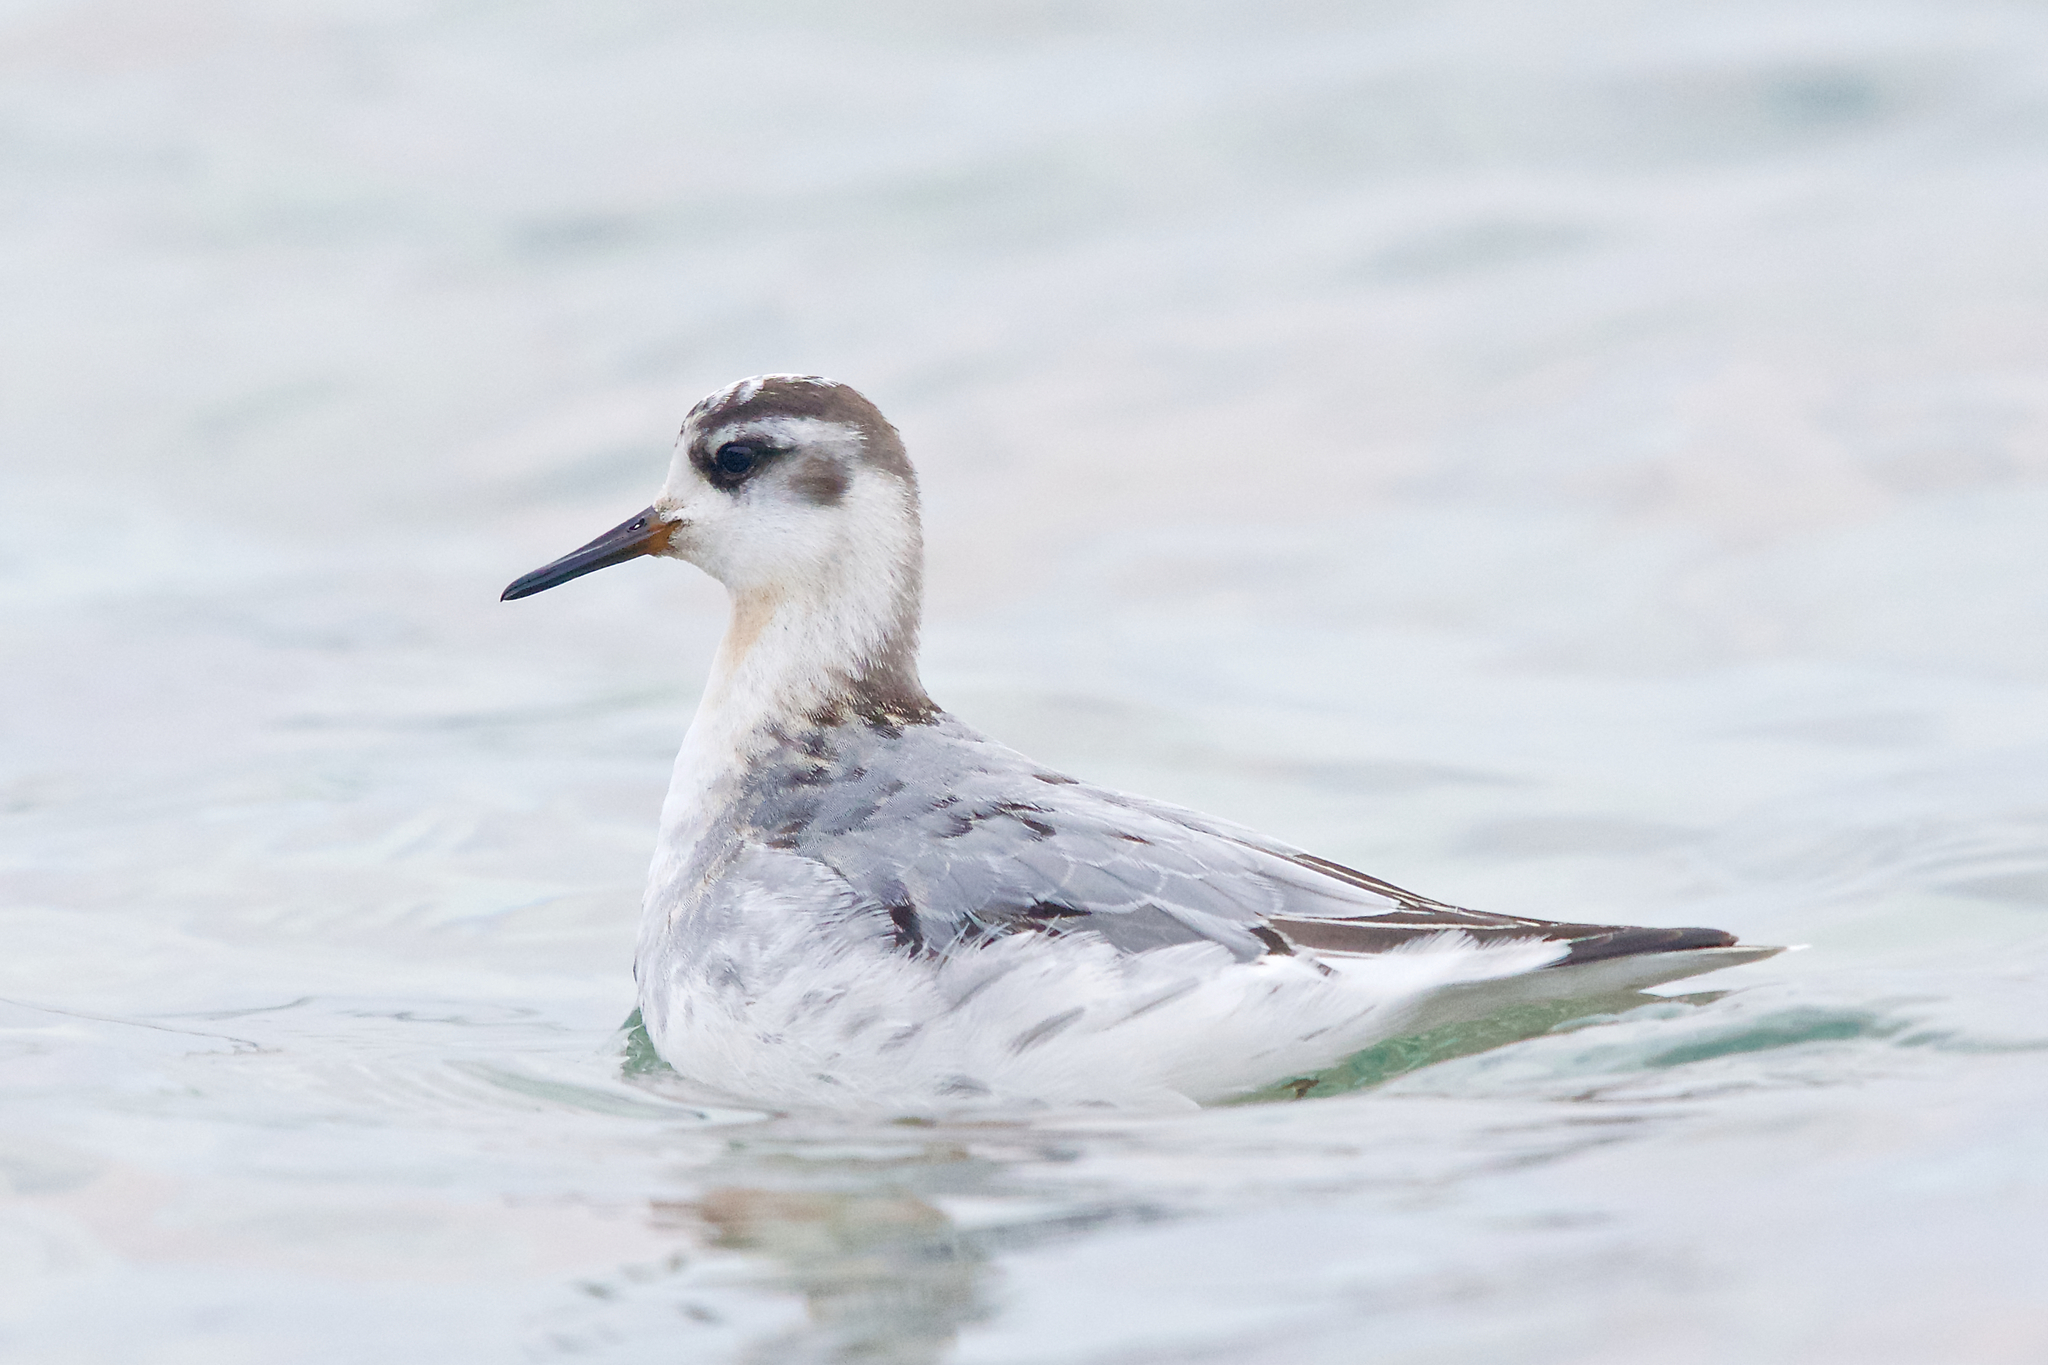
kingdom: Animalia
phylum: Chordata
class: Aves
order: Charadriiformes
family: Scolopacidae
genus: Phalaropus
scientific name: Phalaropus fulicarius
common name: Red phalarope
